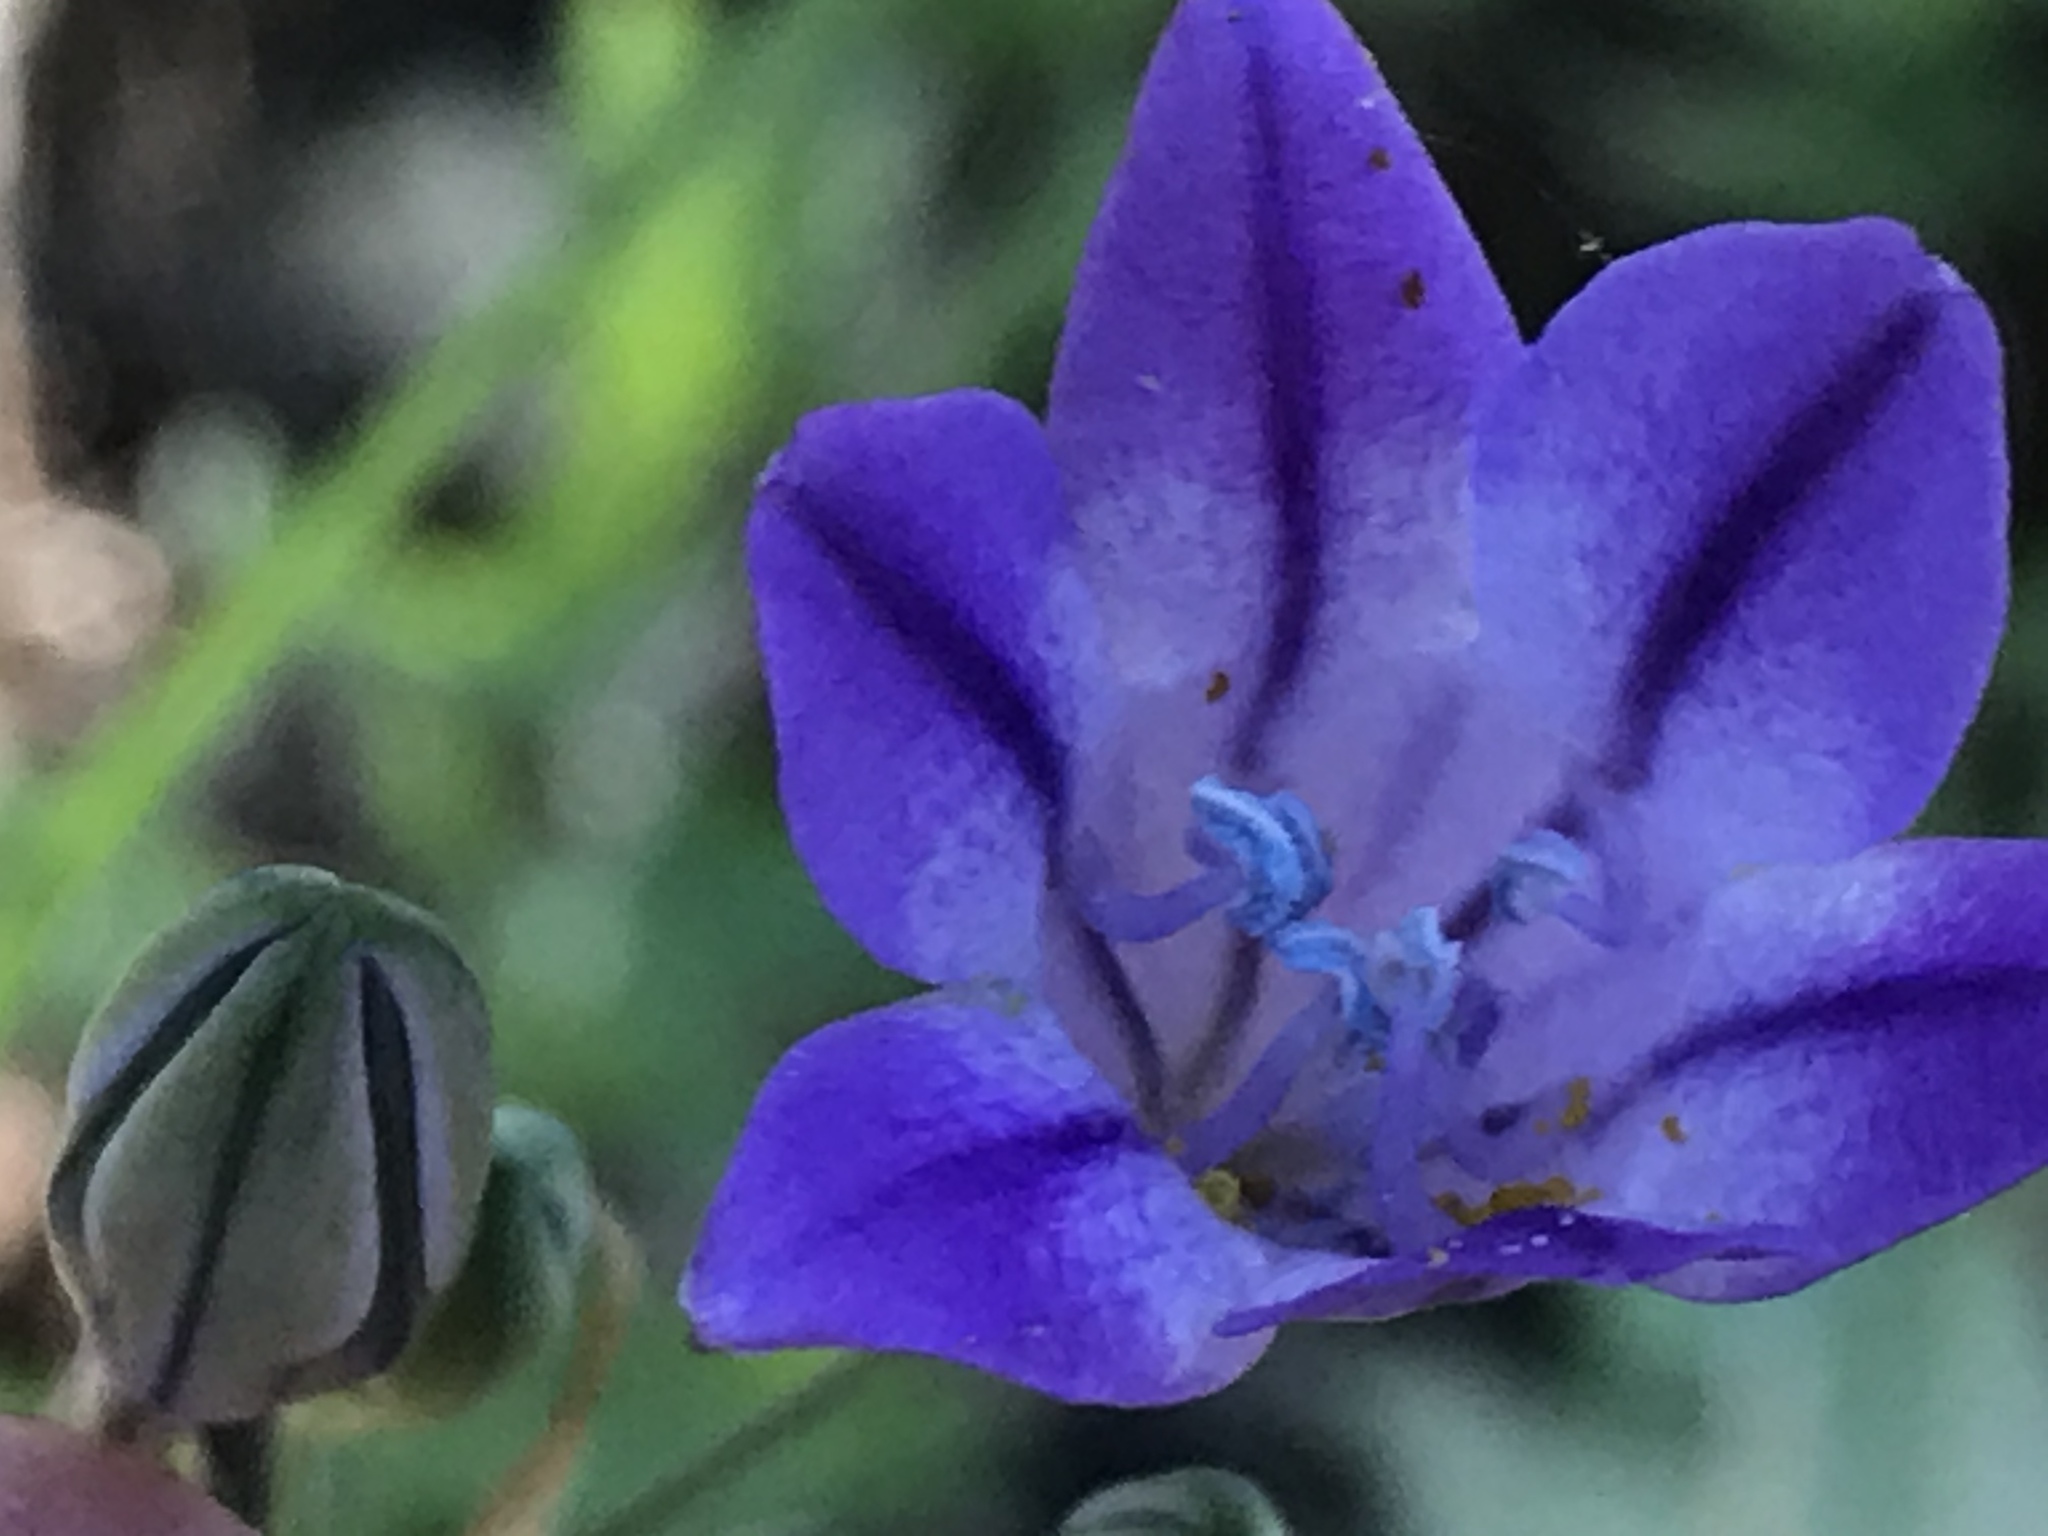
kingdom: Plantae
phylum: Tracheophyta
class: Liliopsida
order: Asparagales
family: Asparagaceae
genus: Triteleia
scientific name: Triteleia laxa
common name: Triplet-lily
